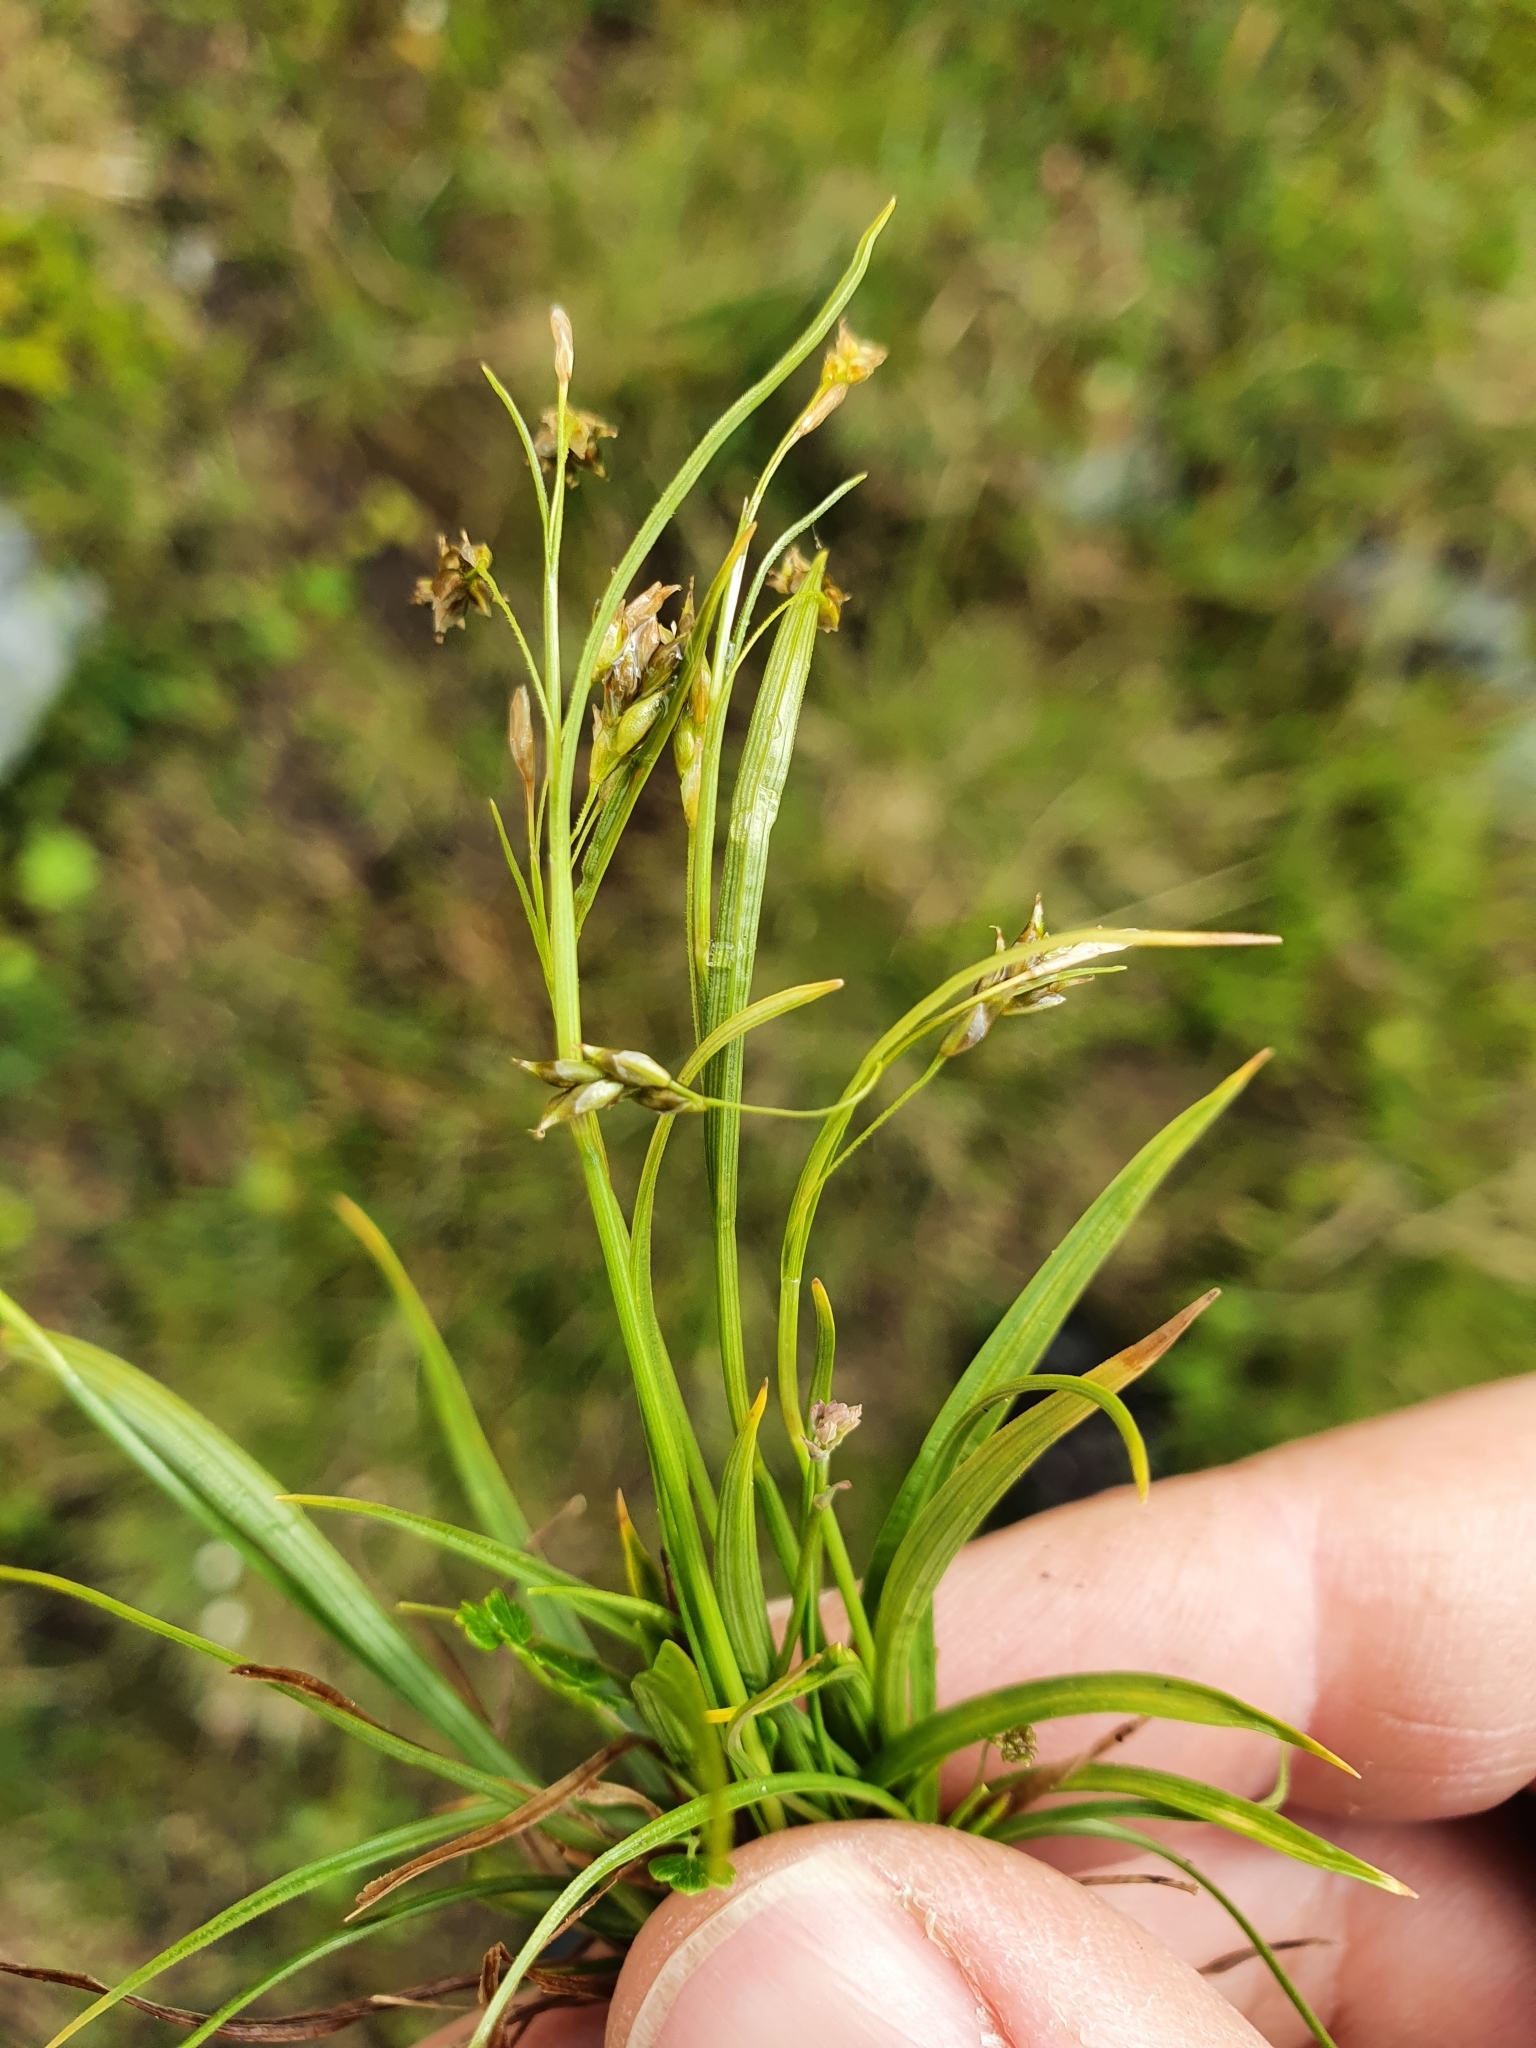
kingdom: Plantae
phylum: Tracheophyta
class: Liliopsida
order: Poales
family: Cyperaceae
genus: Carex
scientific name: Carex capillaris
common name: Hair sedge
